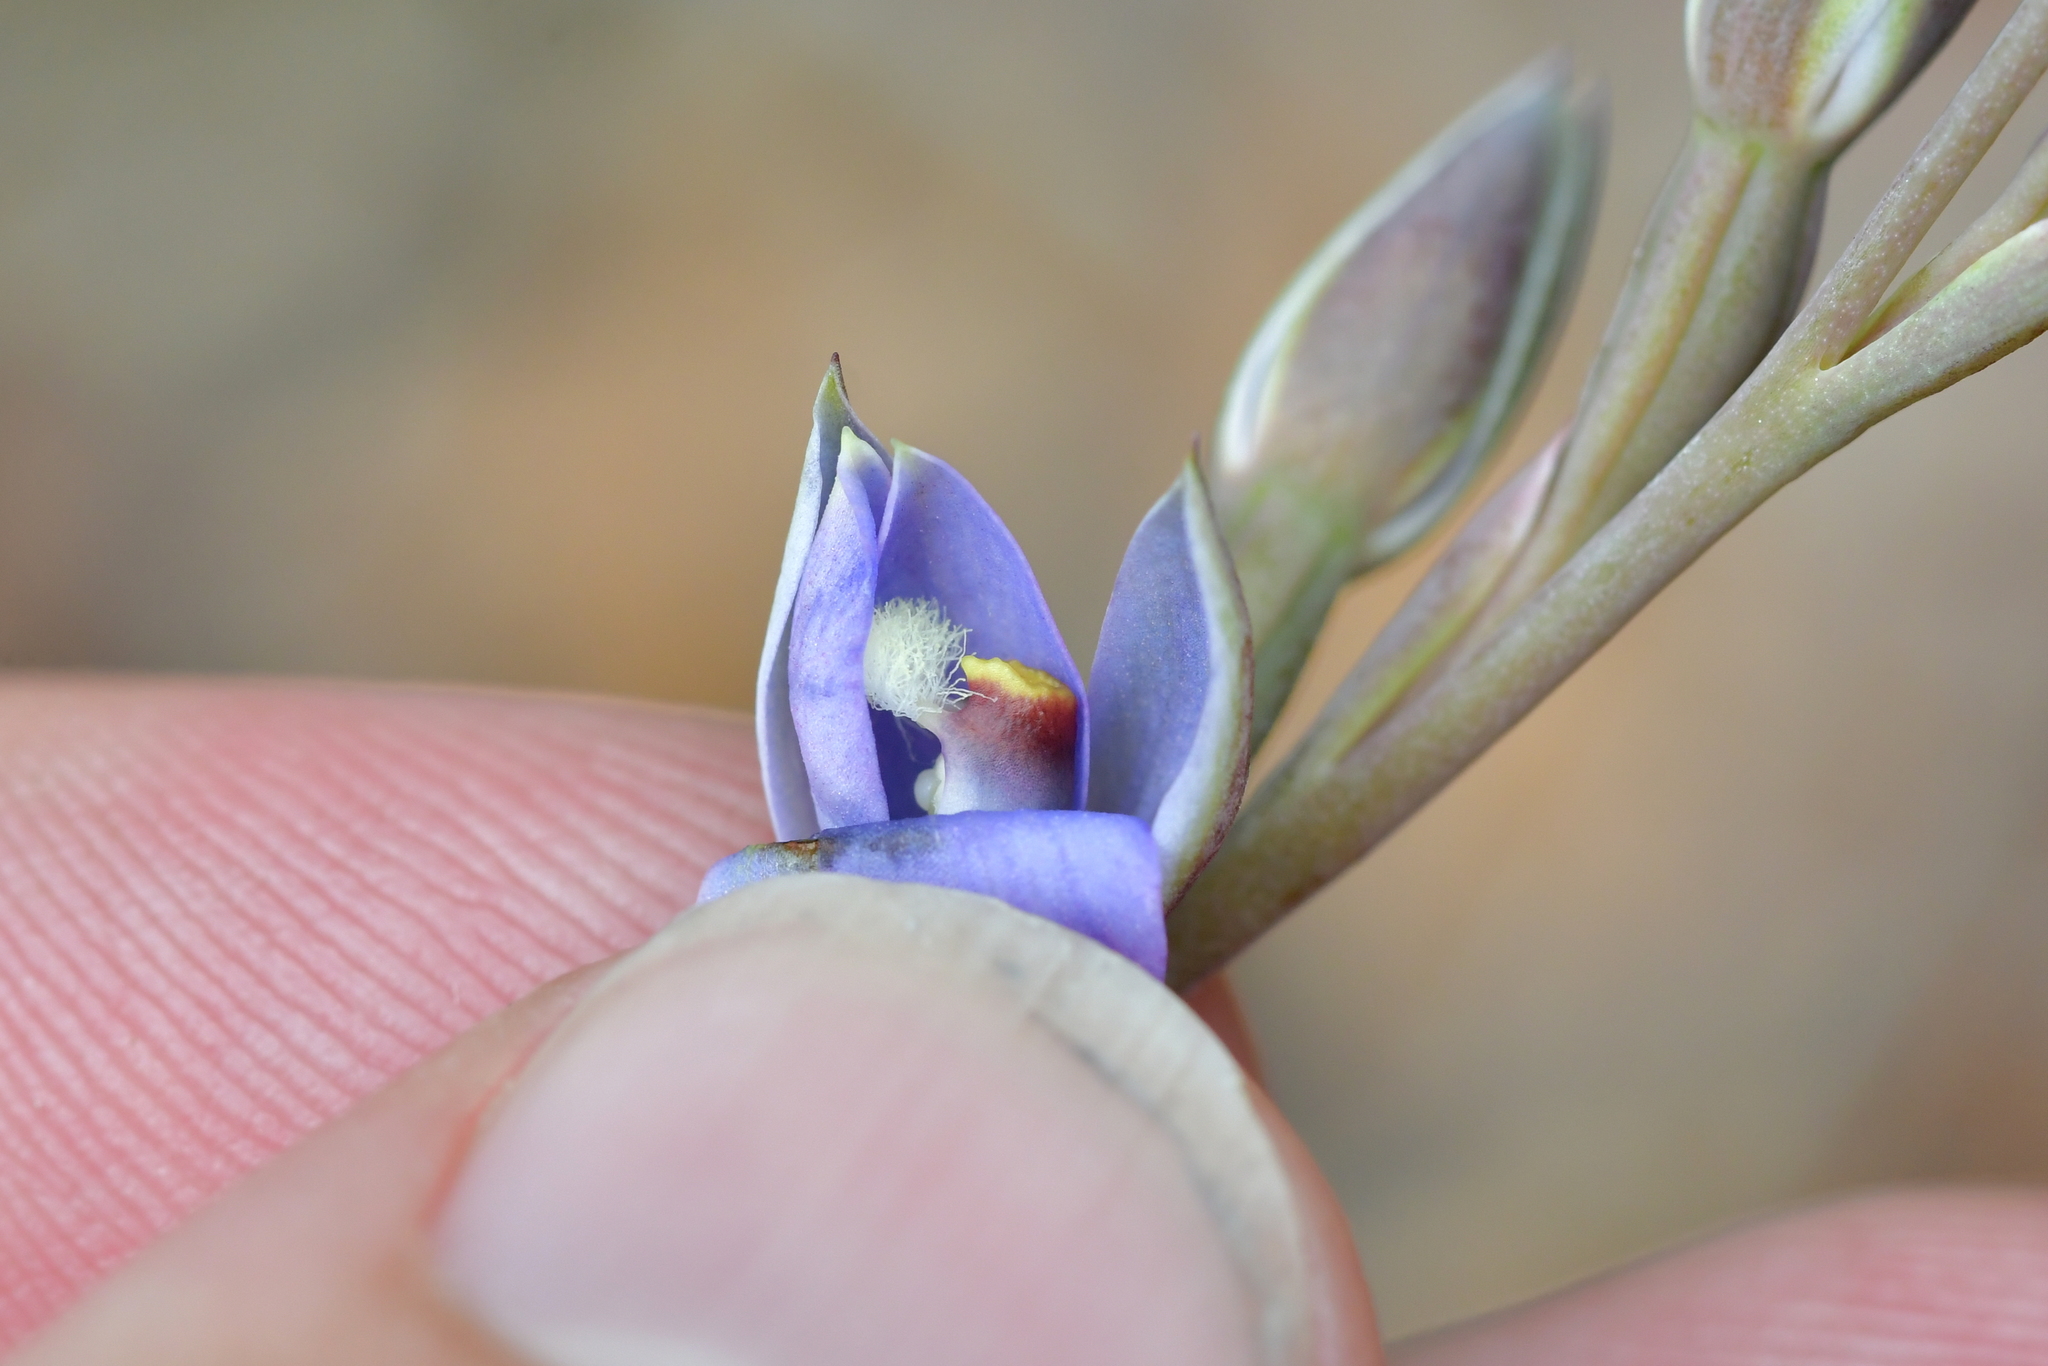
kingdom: Plantae
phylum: Tracheophyta
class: Liliopsida
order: Asparagales
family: Orchidaceae
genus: Thelymitra
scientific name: Thelymitra hatchii
